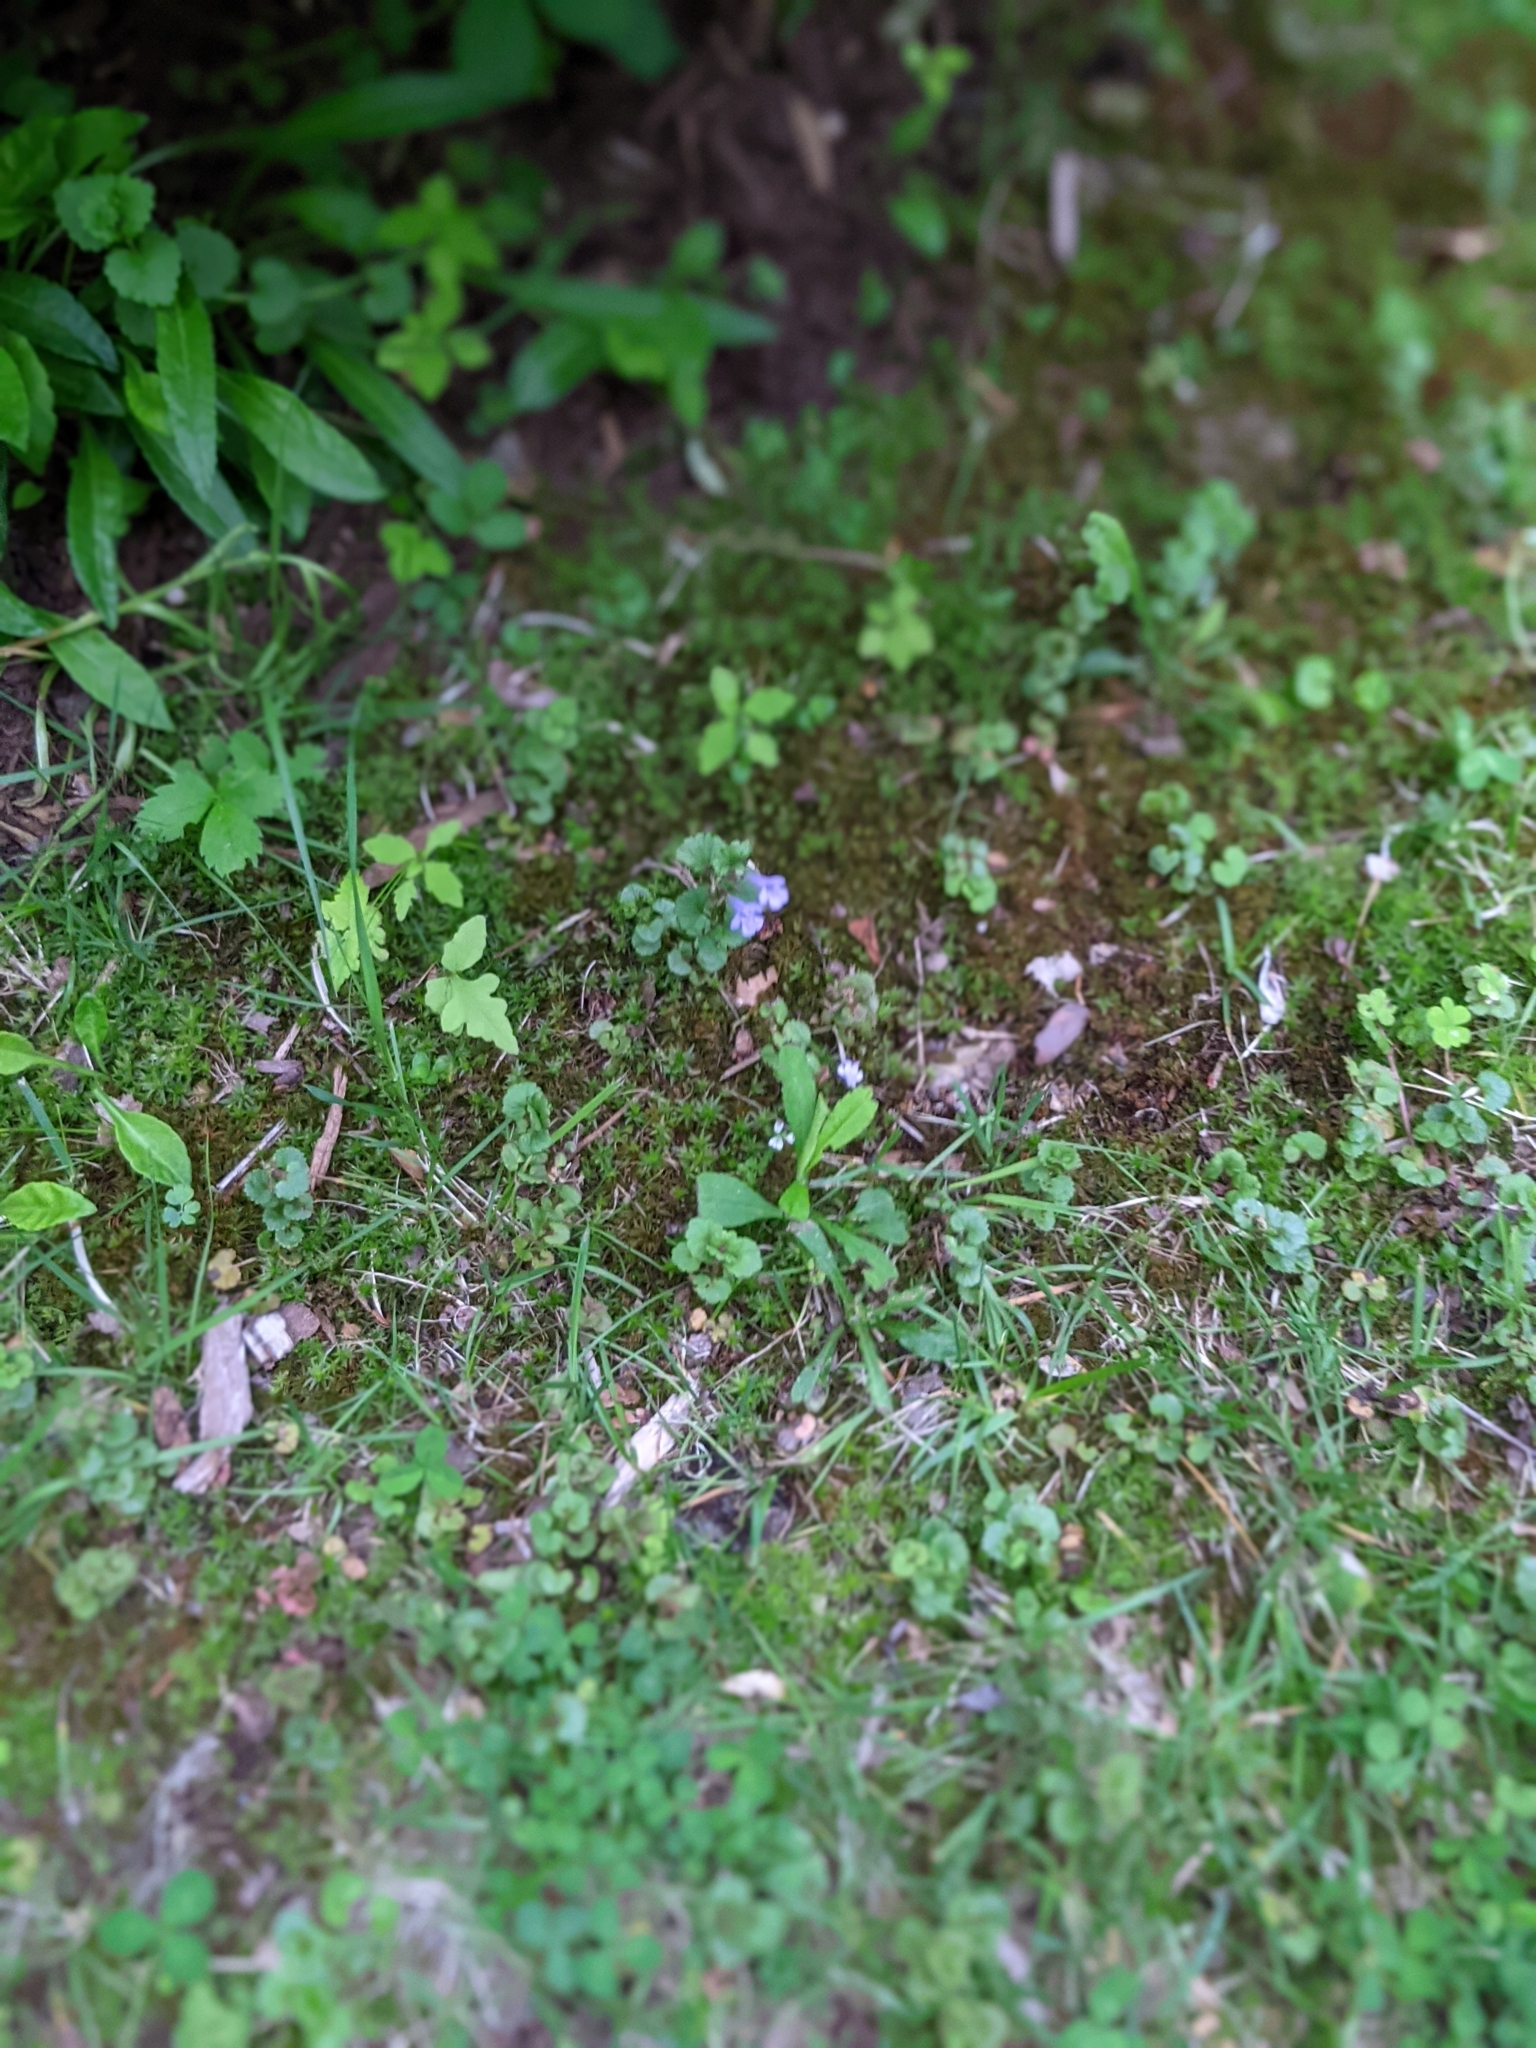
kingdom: Plantae
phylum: Tracheophyta
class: Magnoliopsida
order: Lamiales
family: Lamiaceae
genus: Glechoma
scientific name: Glechoma hederacea
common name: Ground ivy
